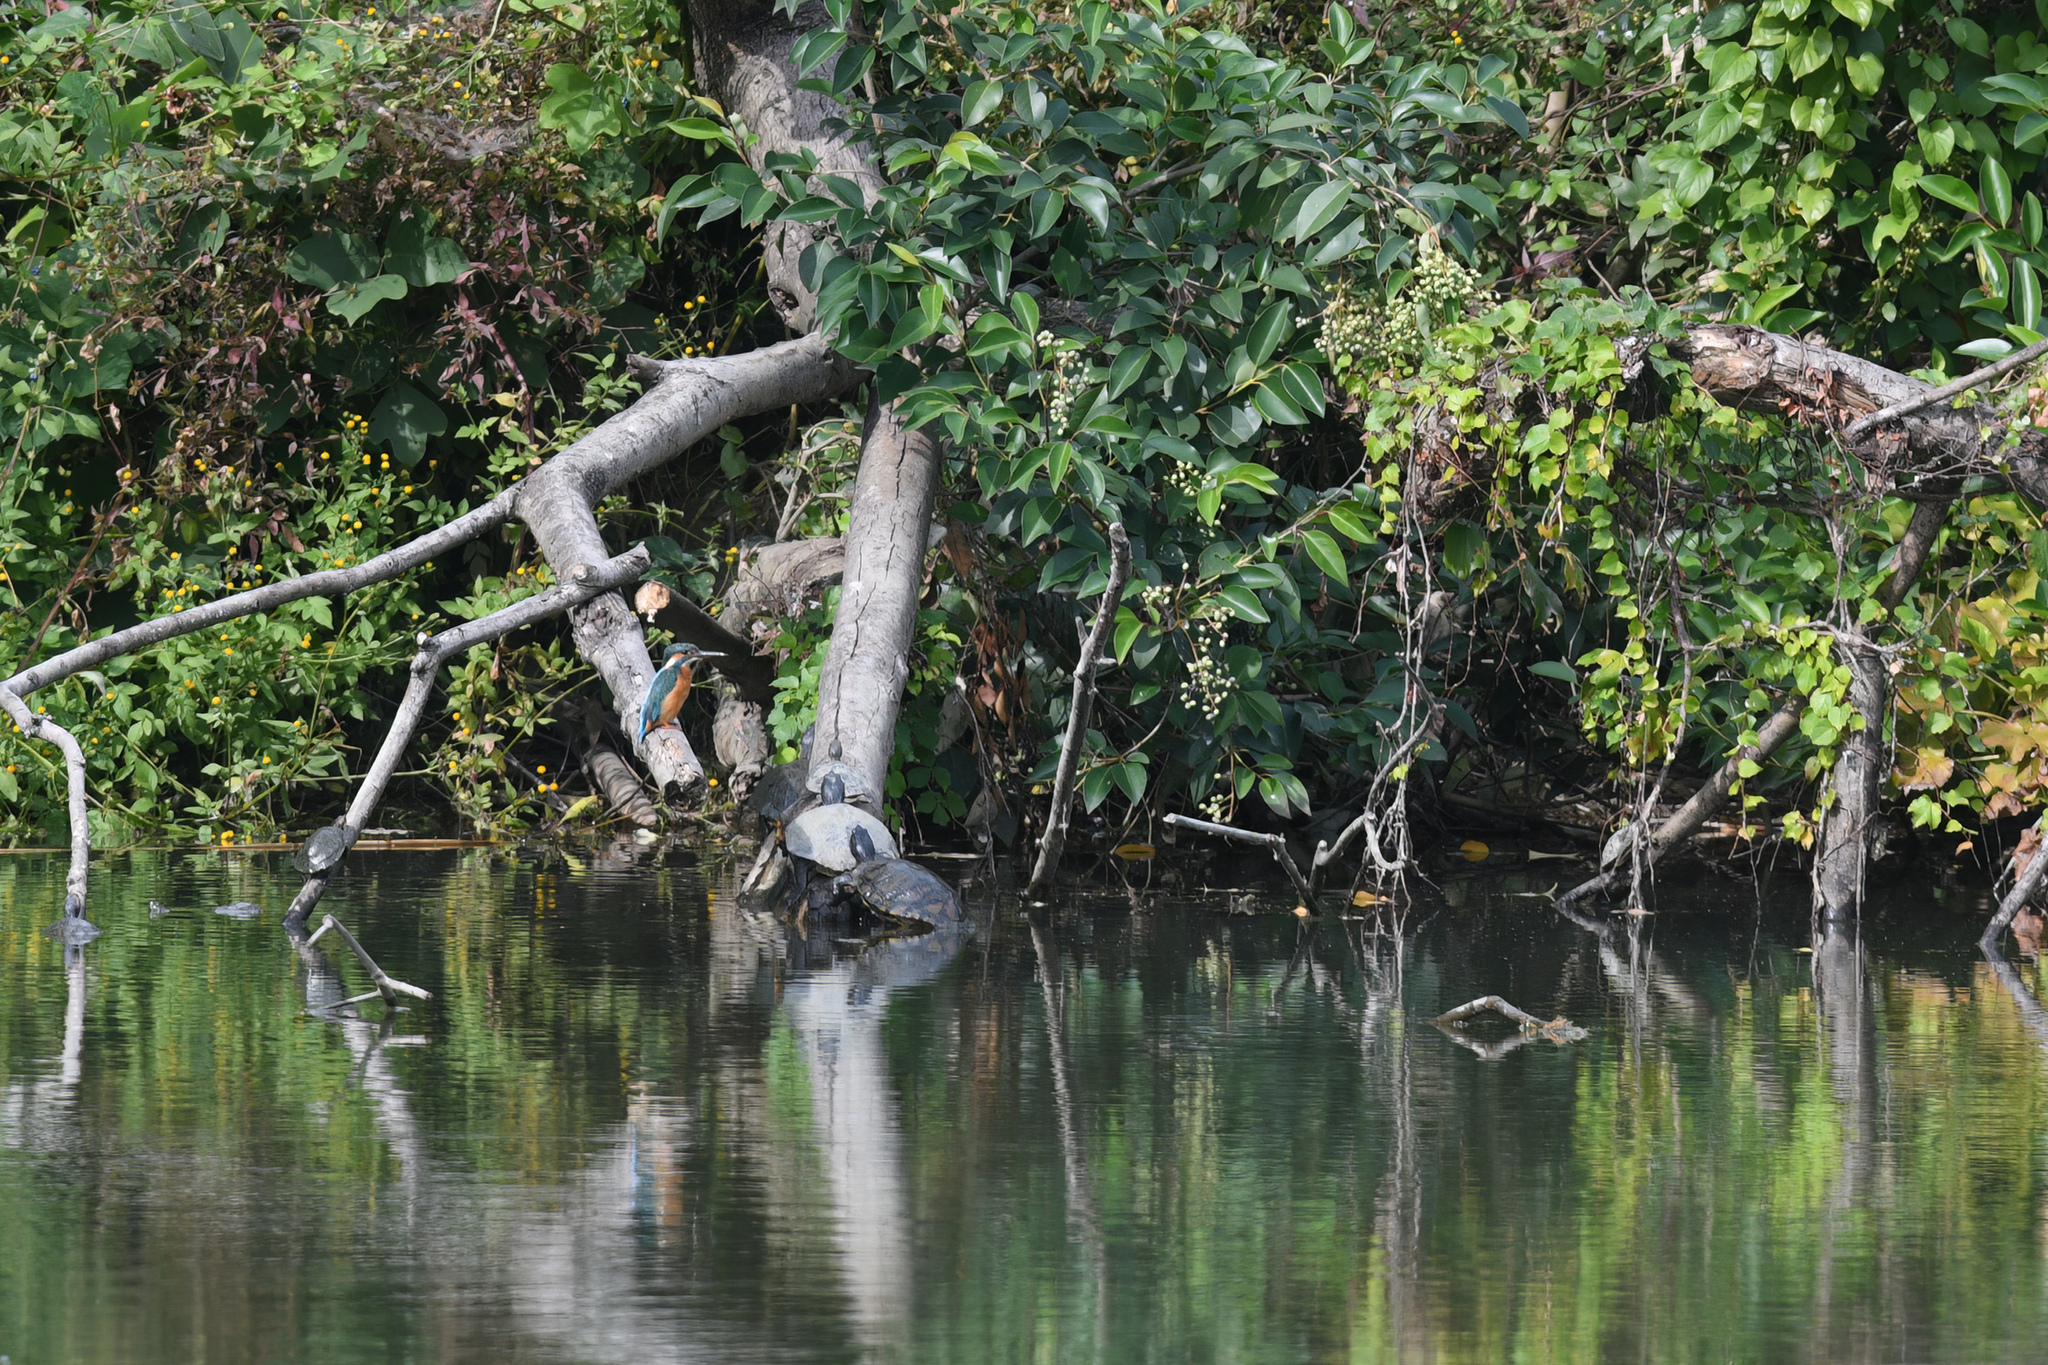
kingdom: Animalia
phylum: Chordata
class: Aves
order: Coraciiformes
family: Alcedinidae
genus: Alcedo
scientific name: Alcedo atthis
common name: Common kingfisher
